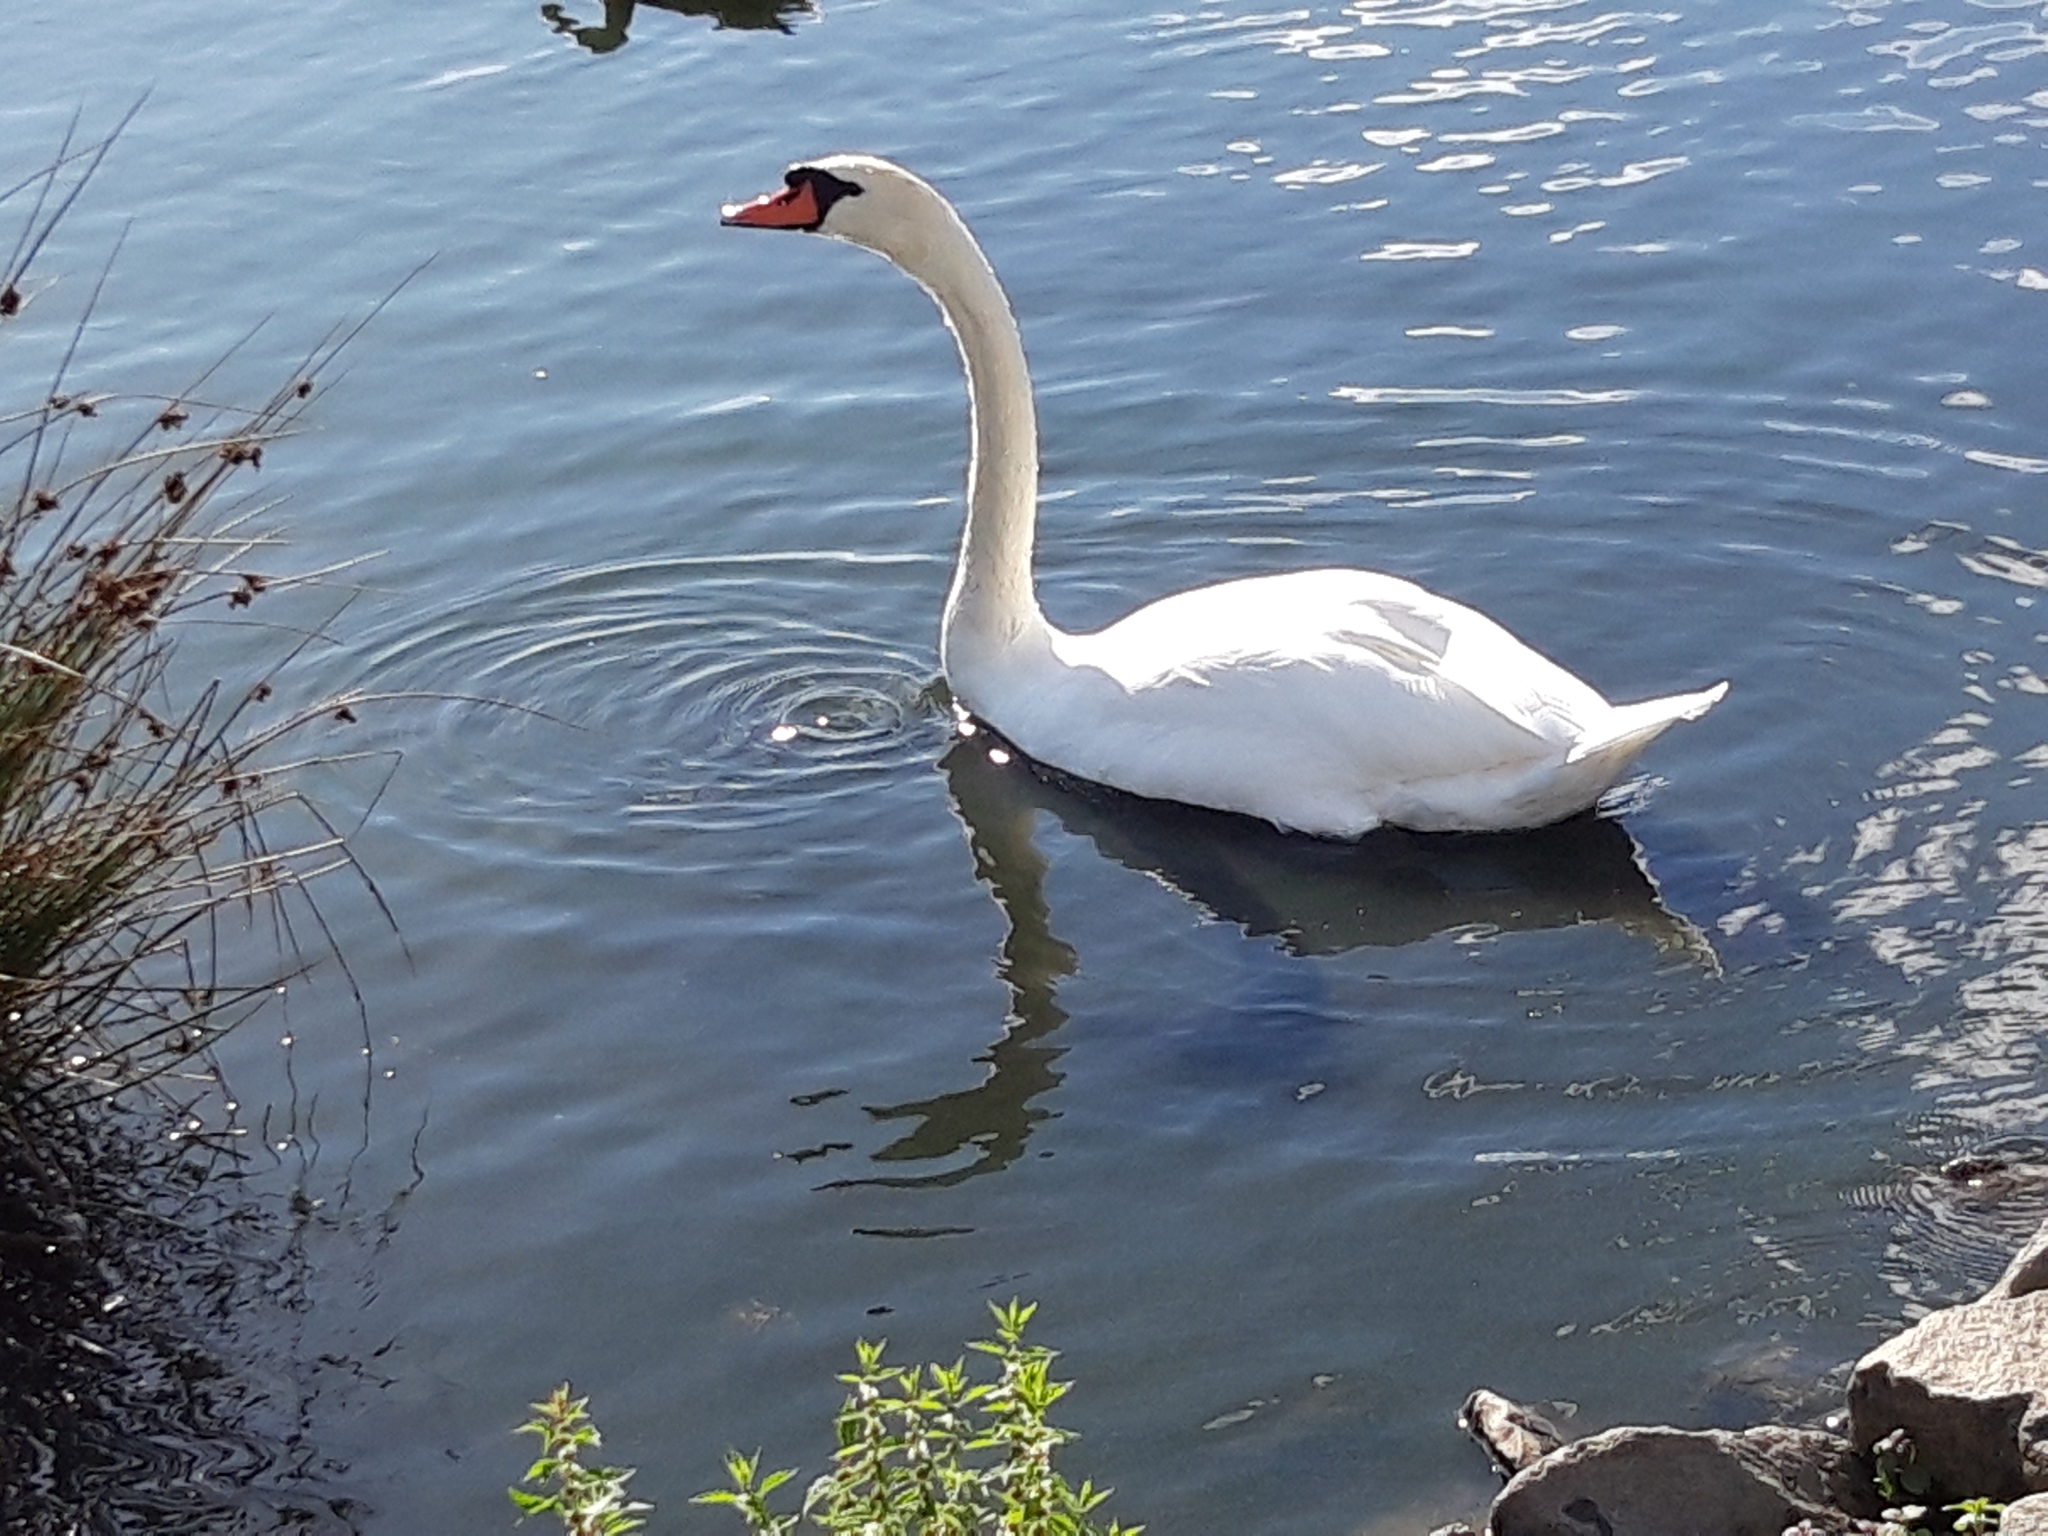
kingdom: Animalia
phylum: Chordata
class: Aves
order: Anseriformes
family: Anatidae
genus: Cygnus
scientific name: Cygnus olor
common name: Mute swan
